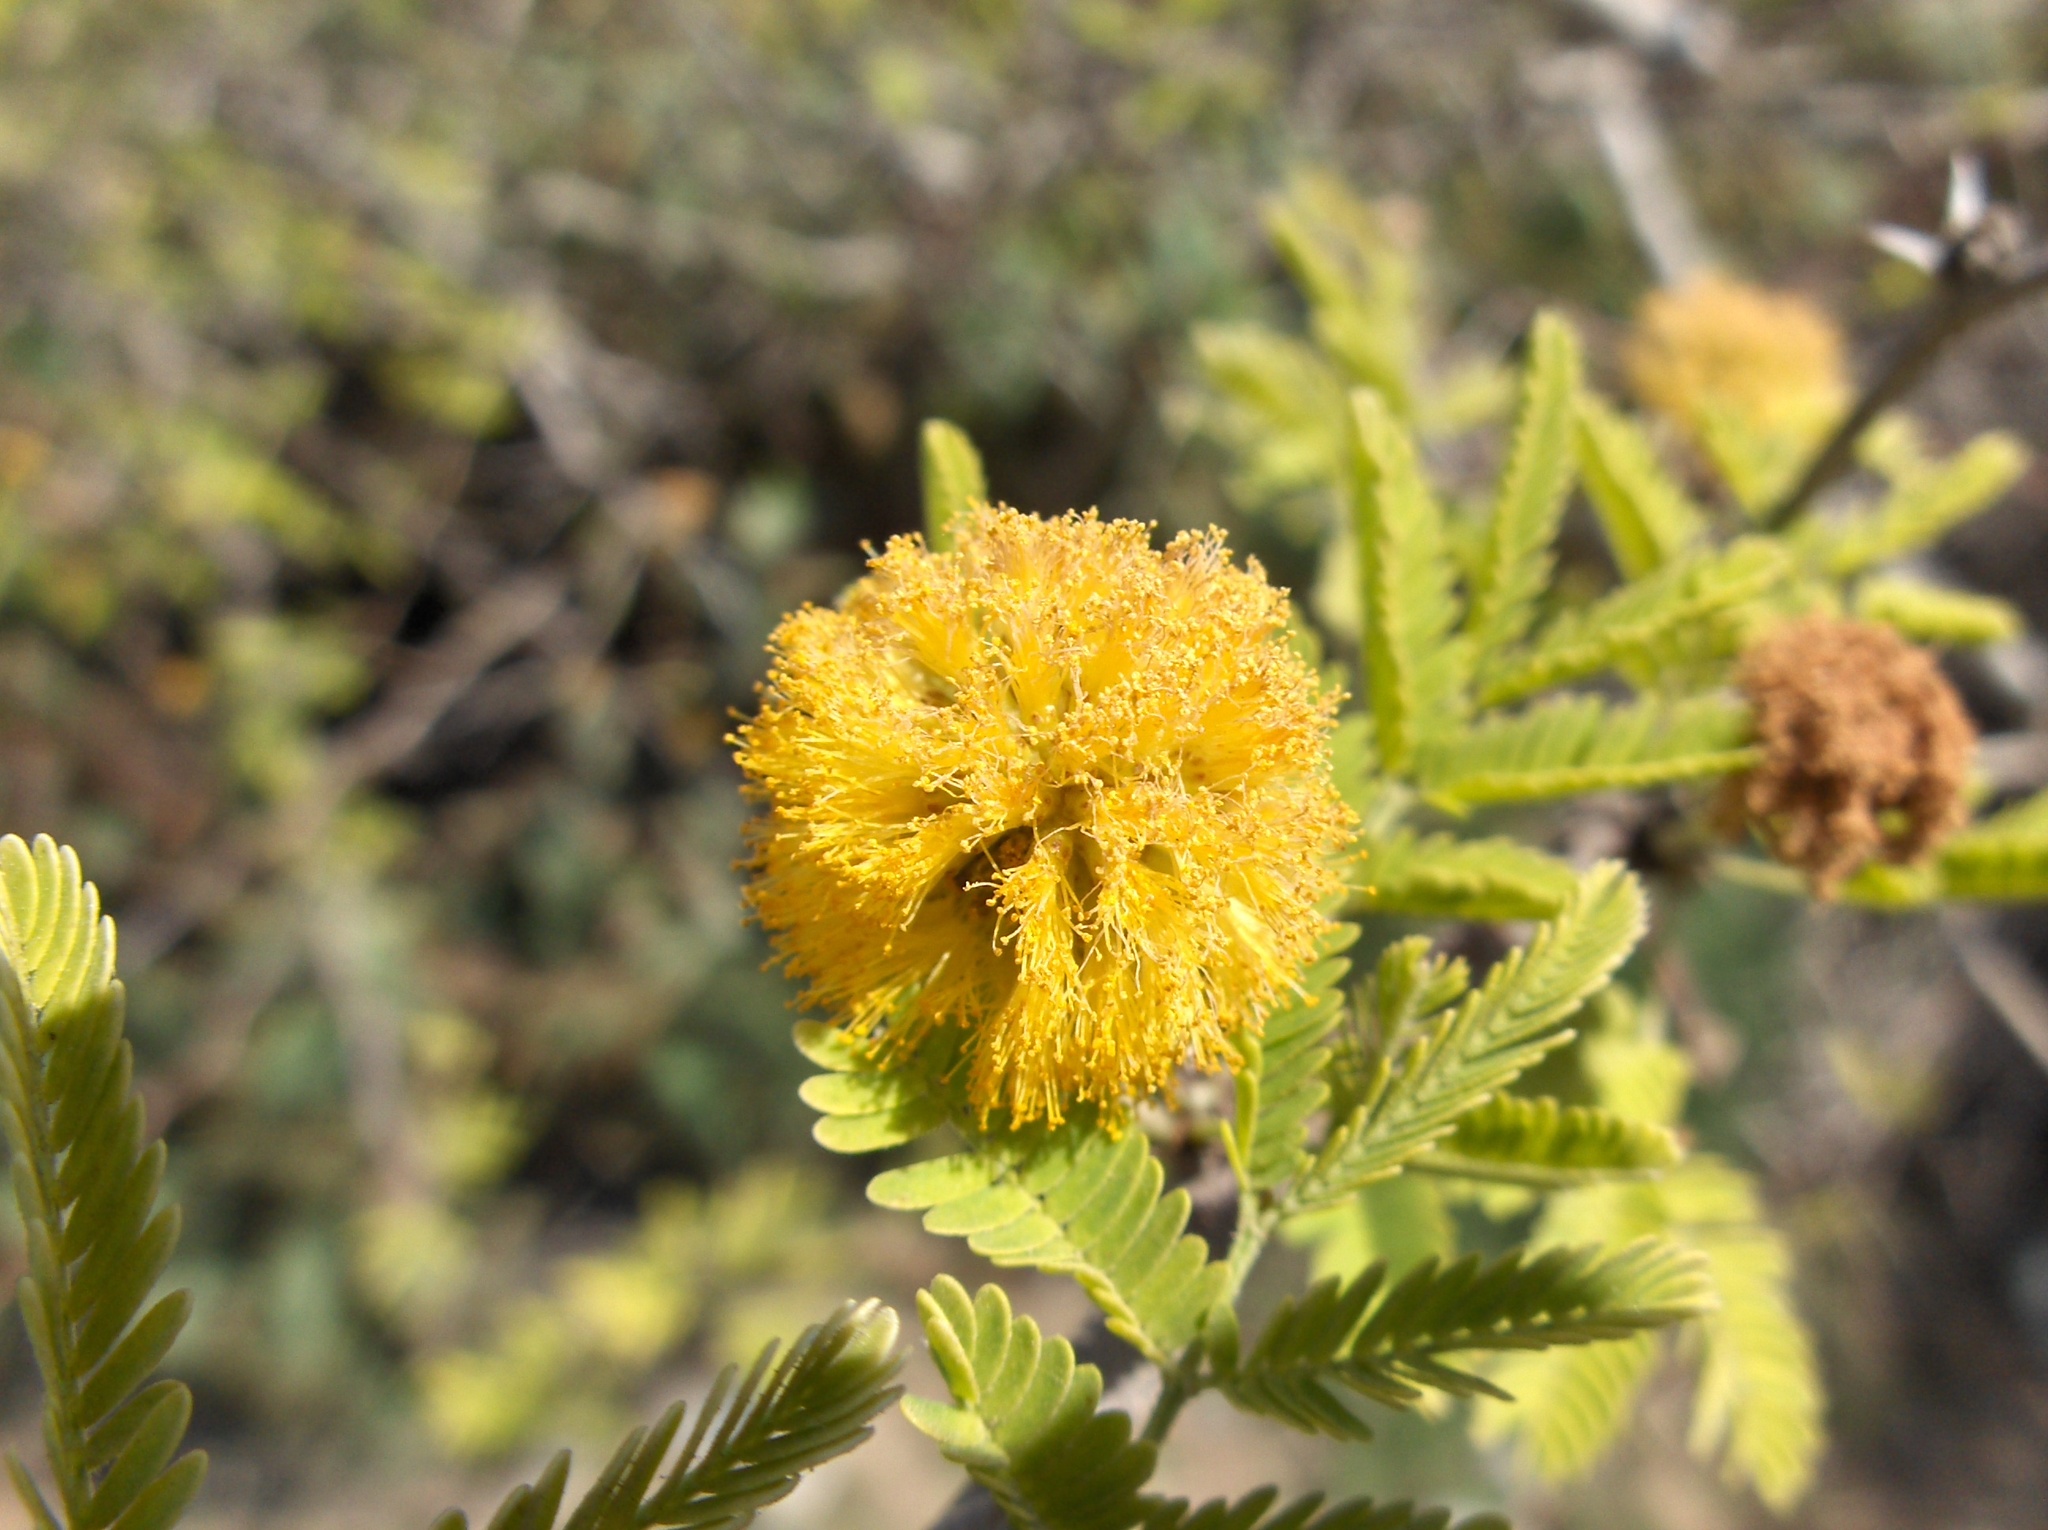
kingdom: Plantae
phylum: Tracheophyta
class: Magnoliopsida
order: Fabales
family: Fabaceae
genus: Vachellia
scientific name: Vachellia farnesiana
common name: Sweet acacia
